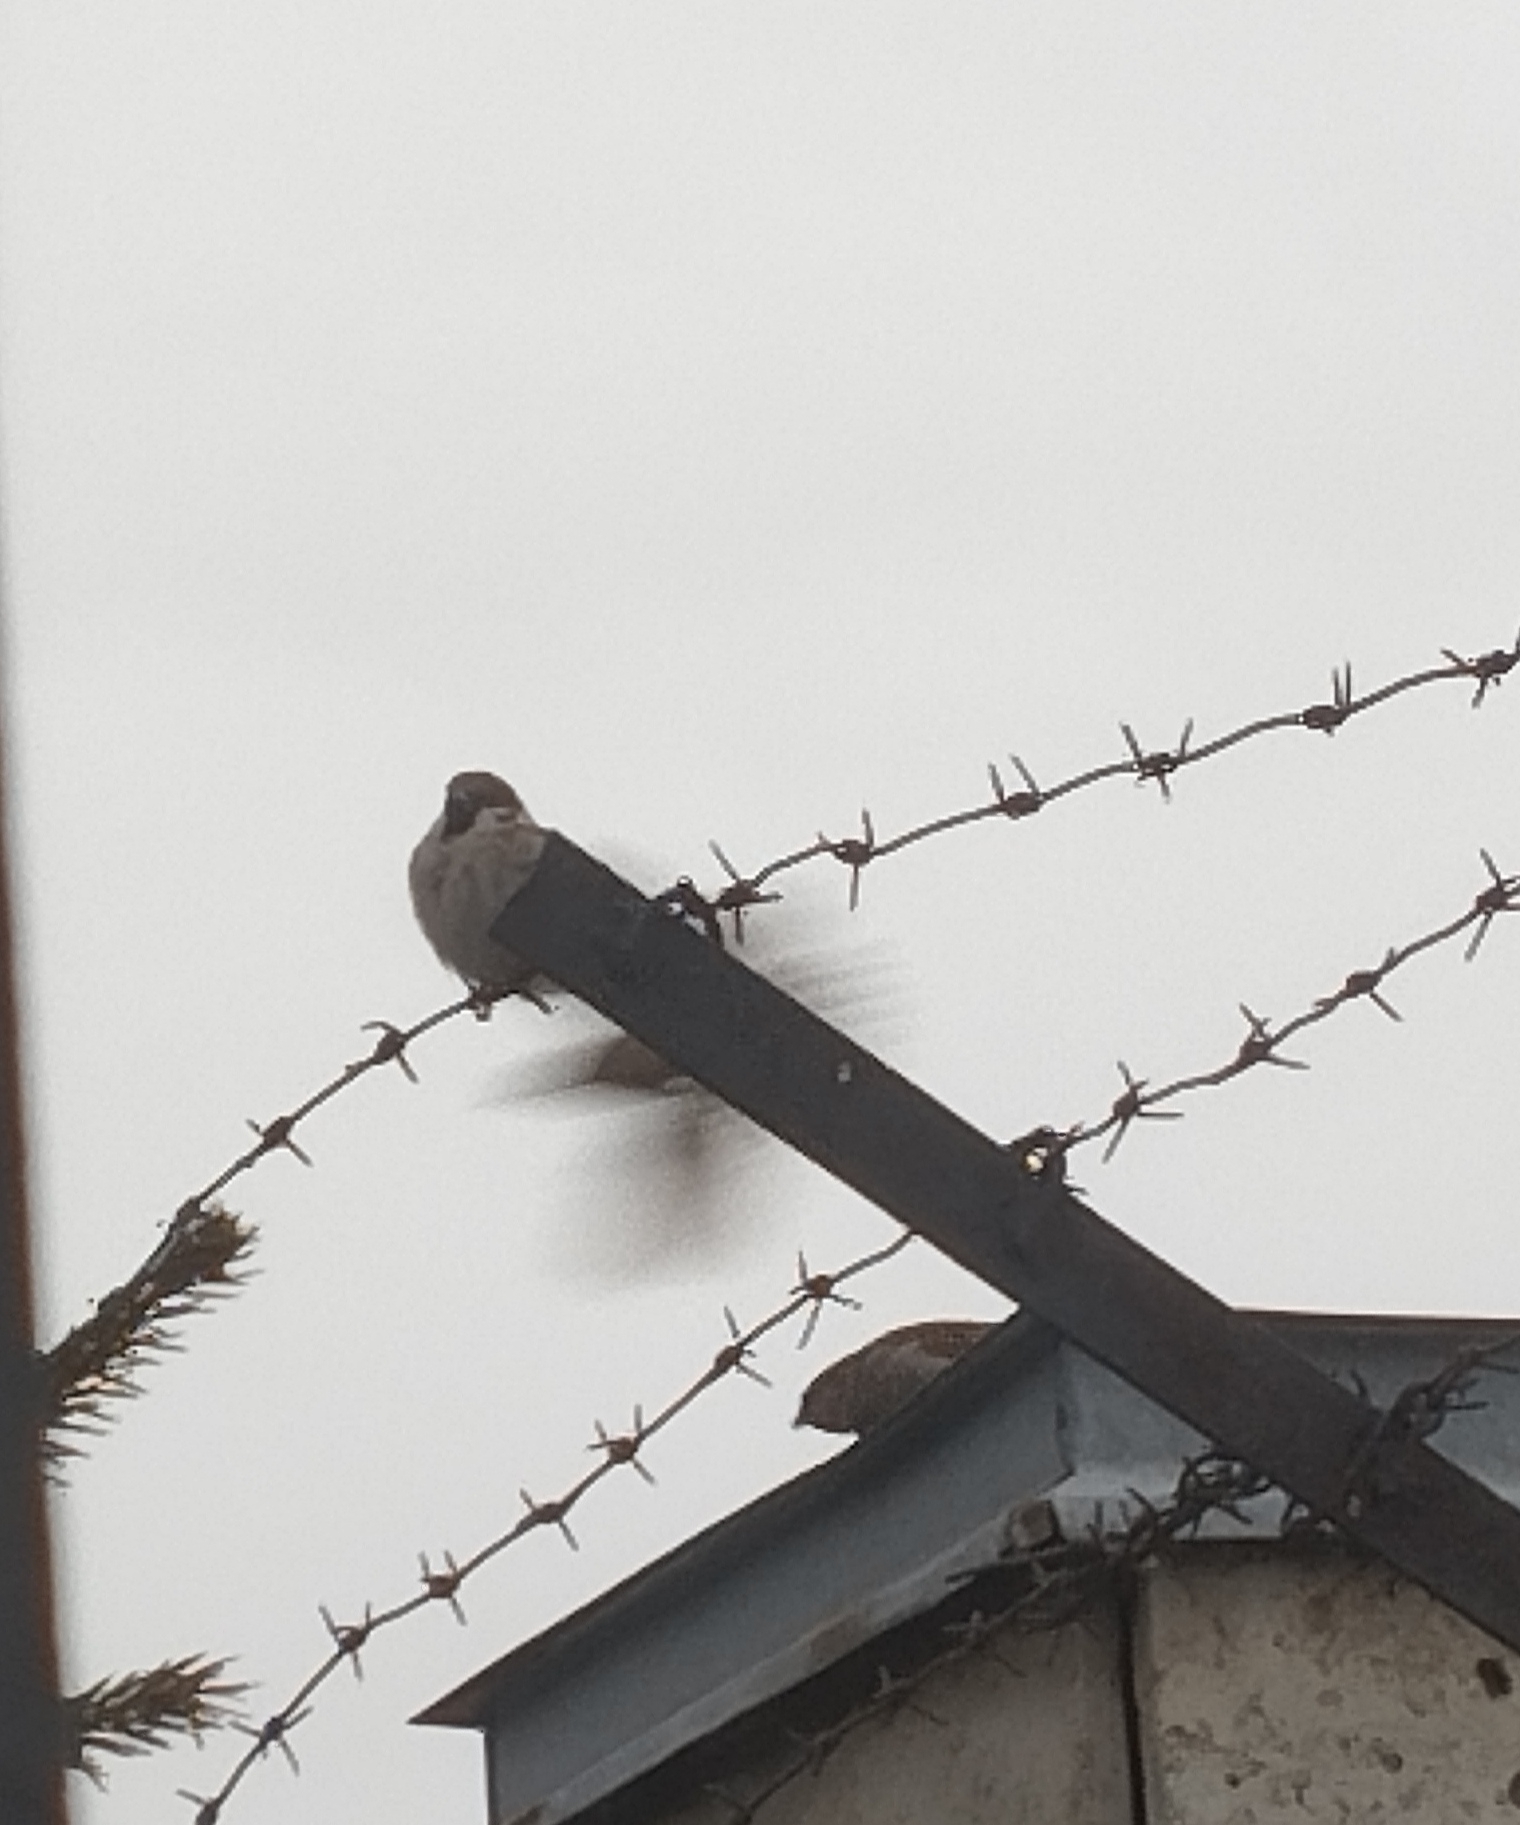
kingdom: Animalia
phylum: Chordata
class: Aves
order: Passeriformes
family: Passeridae
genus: Passer
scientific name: Passer montanus
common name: Eurasian tree sparrow
